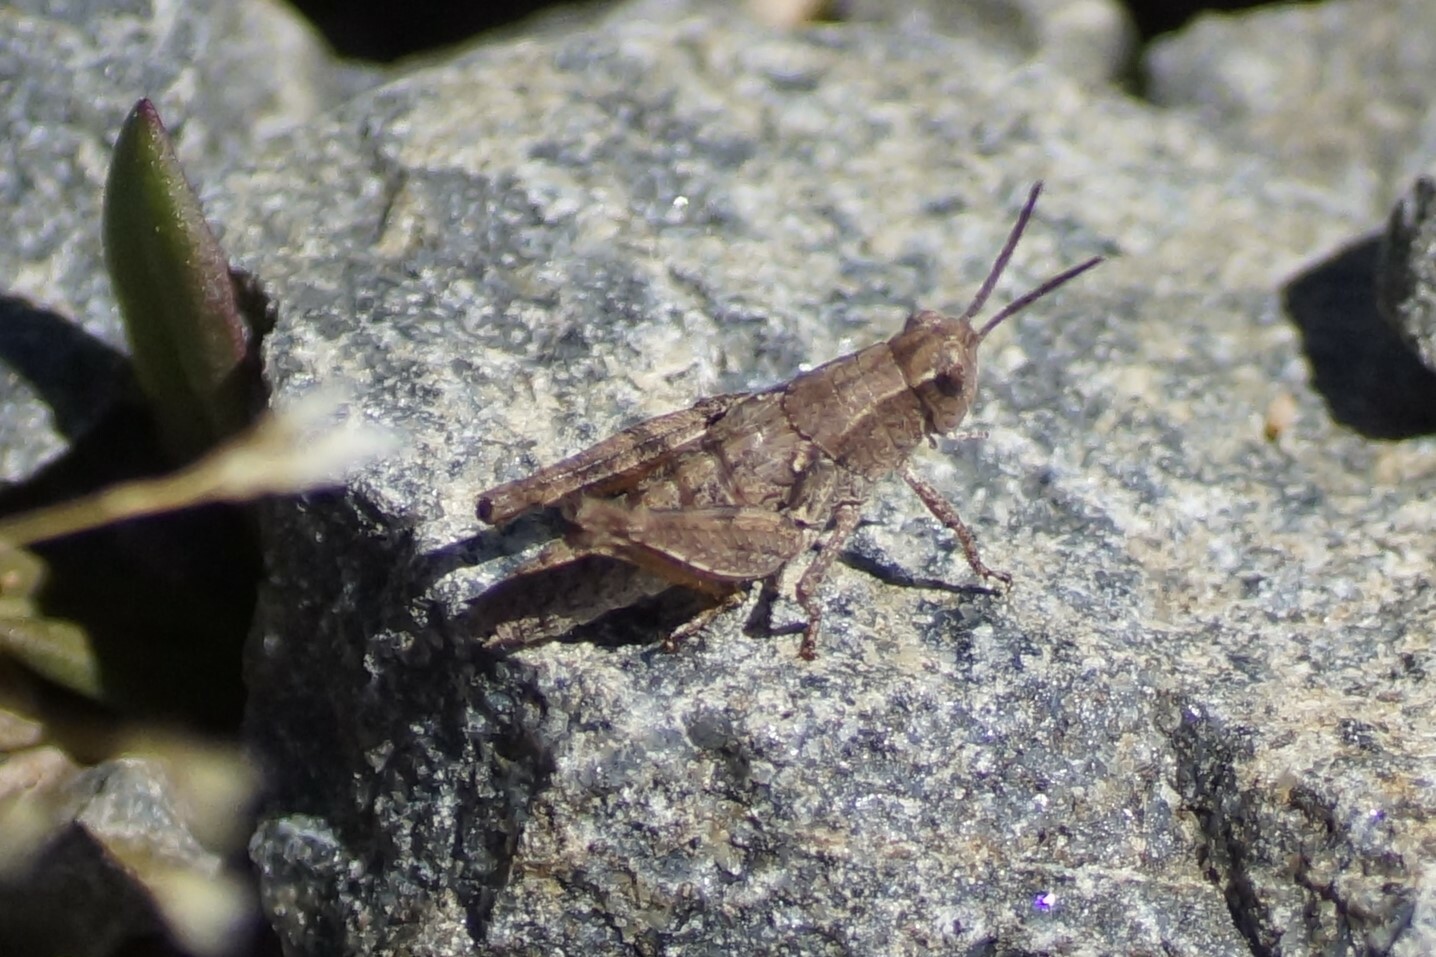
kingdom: Animalia
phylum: Arthropoda
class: Insecta
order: Orthoptera
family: Acrididae
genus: Phaulacridium
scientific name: Phaulacridium vittatum
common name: Wingless grasshopper
